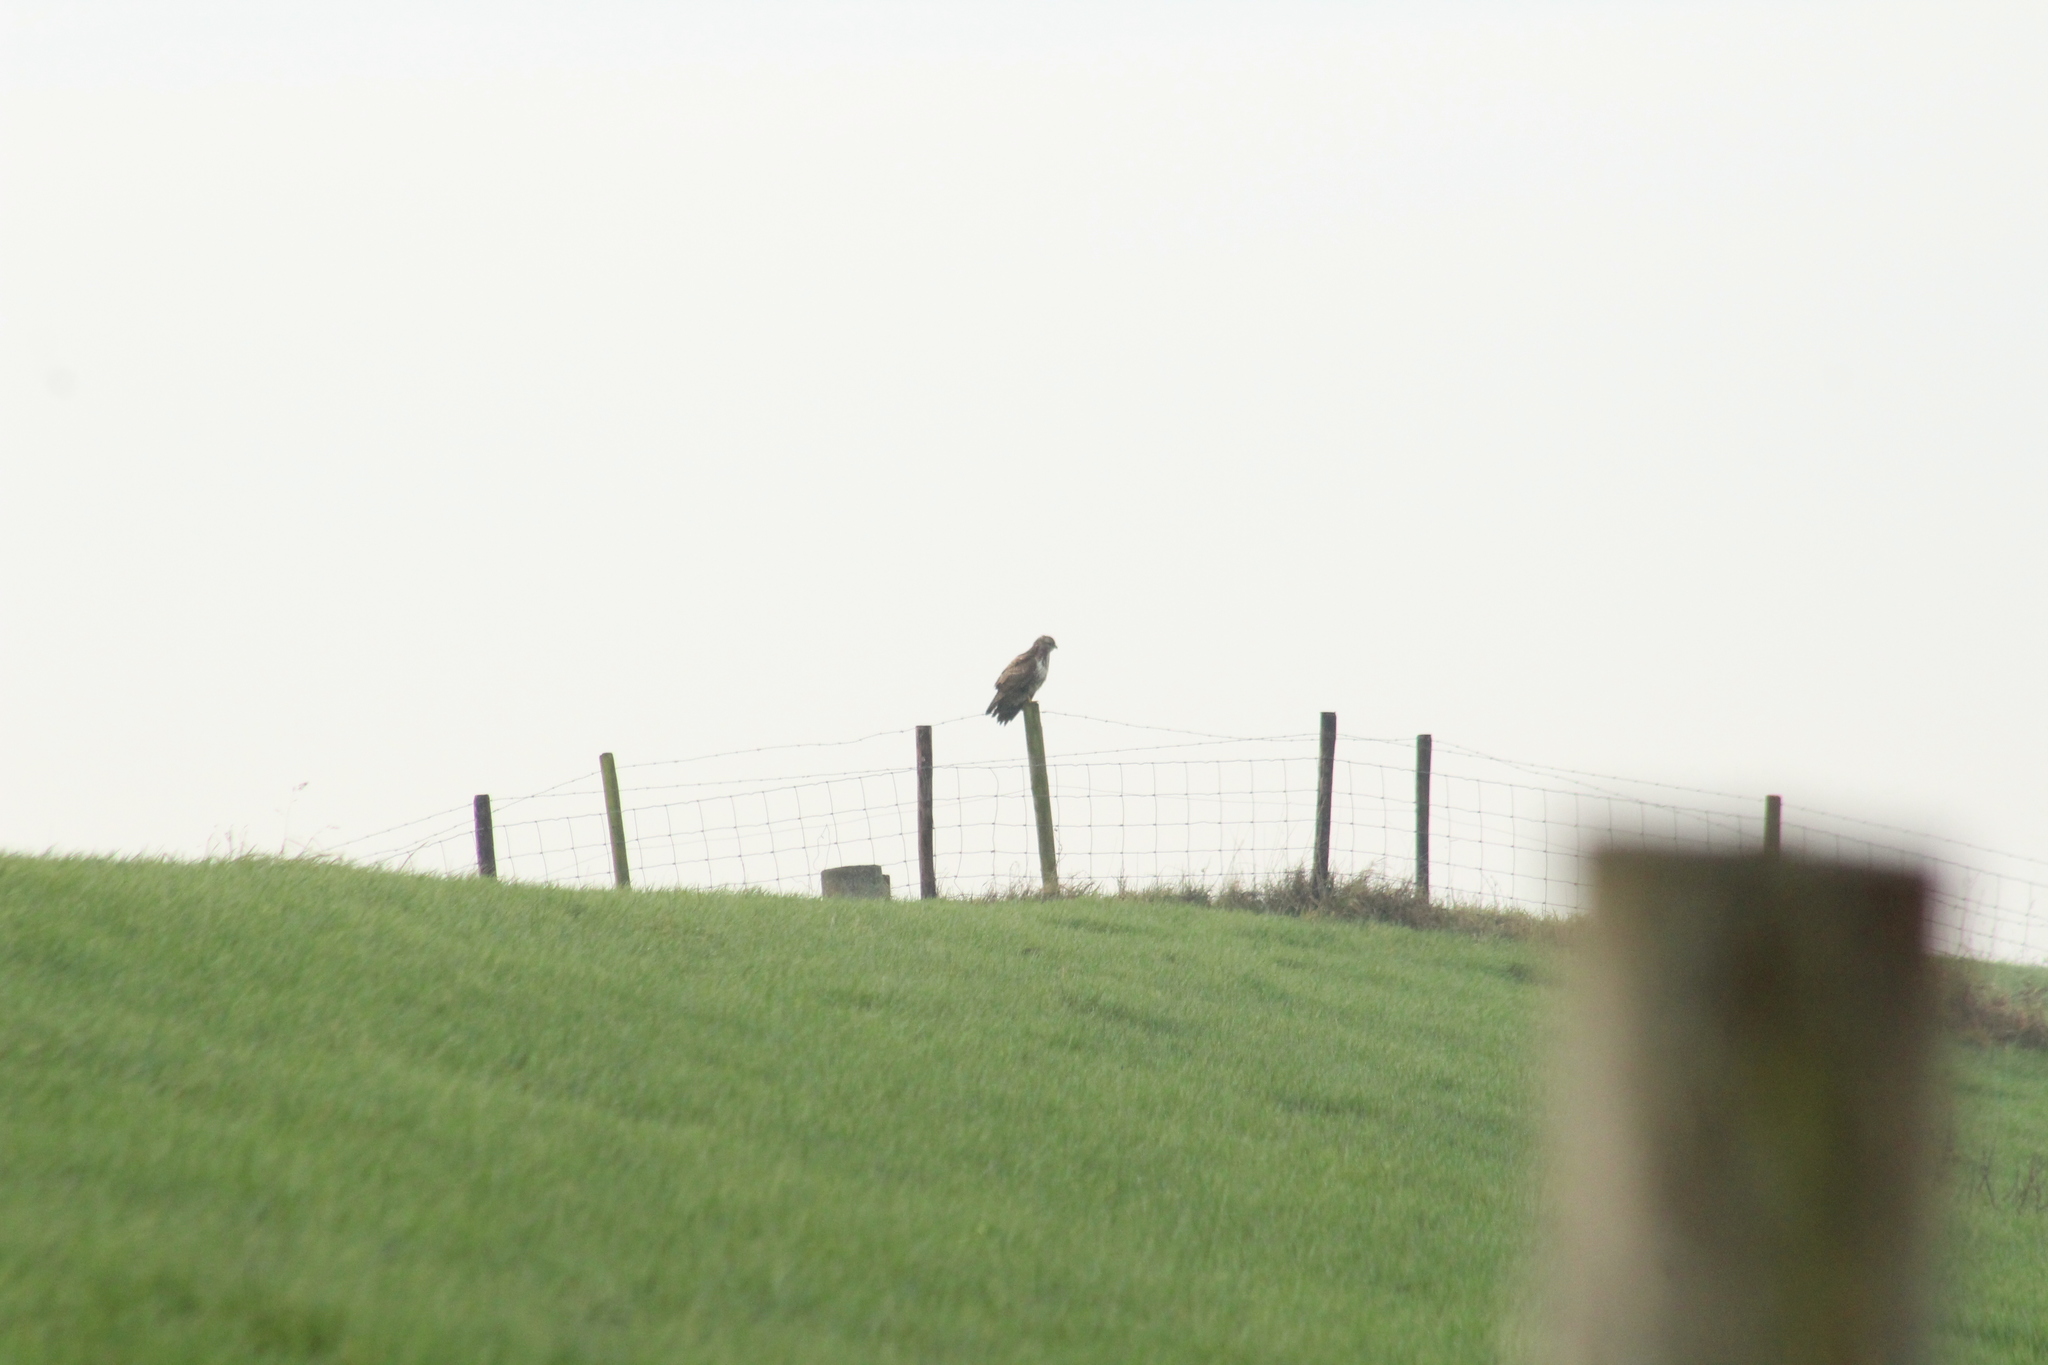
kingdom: Animalia
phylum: Chordata
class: Aves
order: Accipitriformes
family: Accipitridae
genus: Buteo
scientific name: Buteo buteo
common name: Common buzzard
